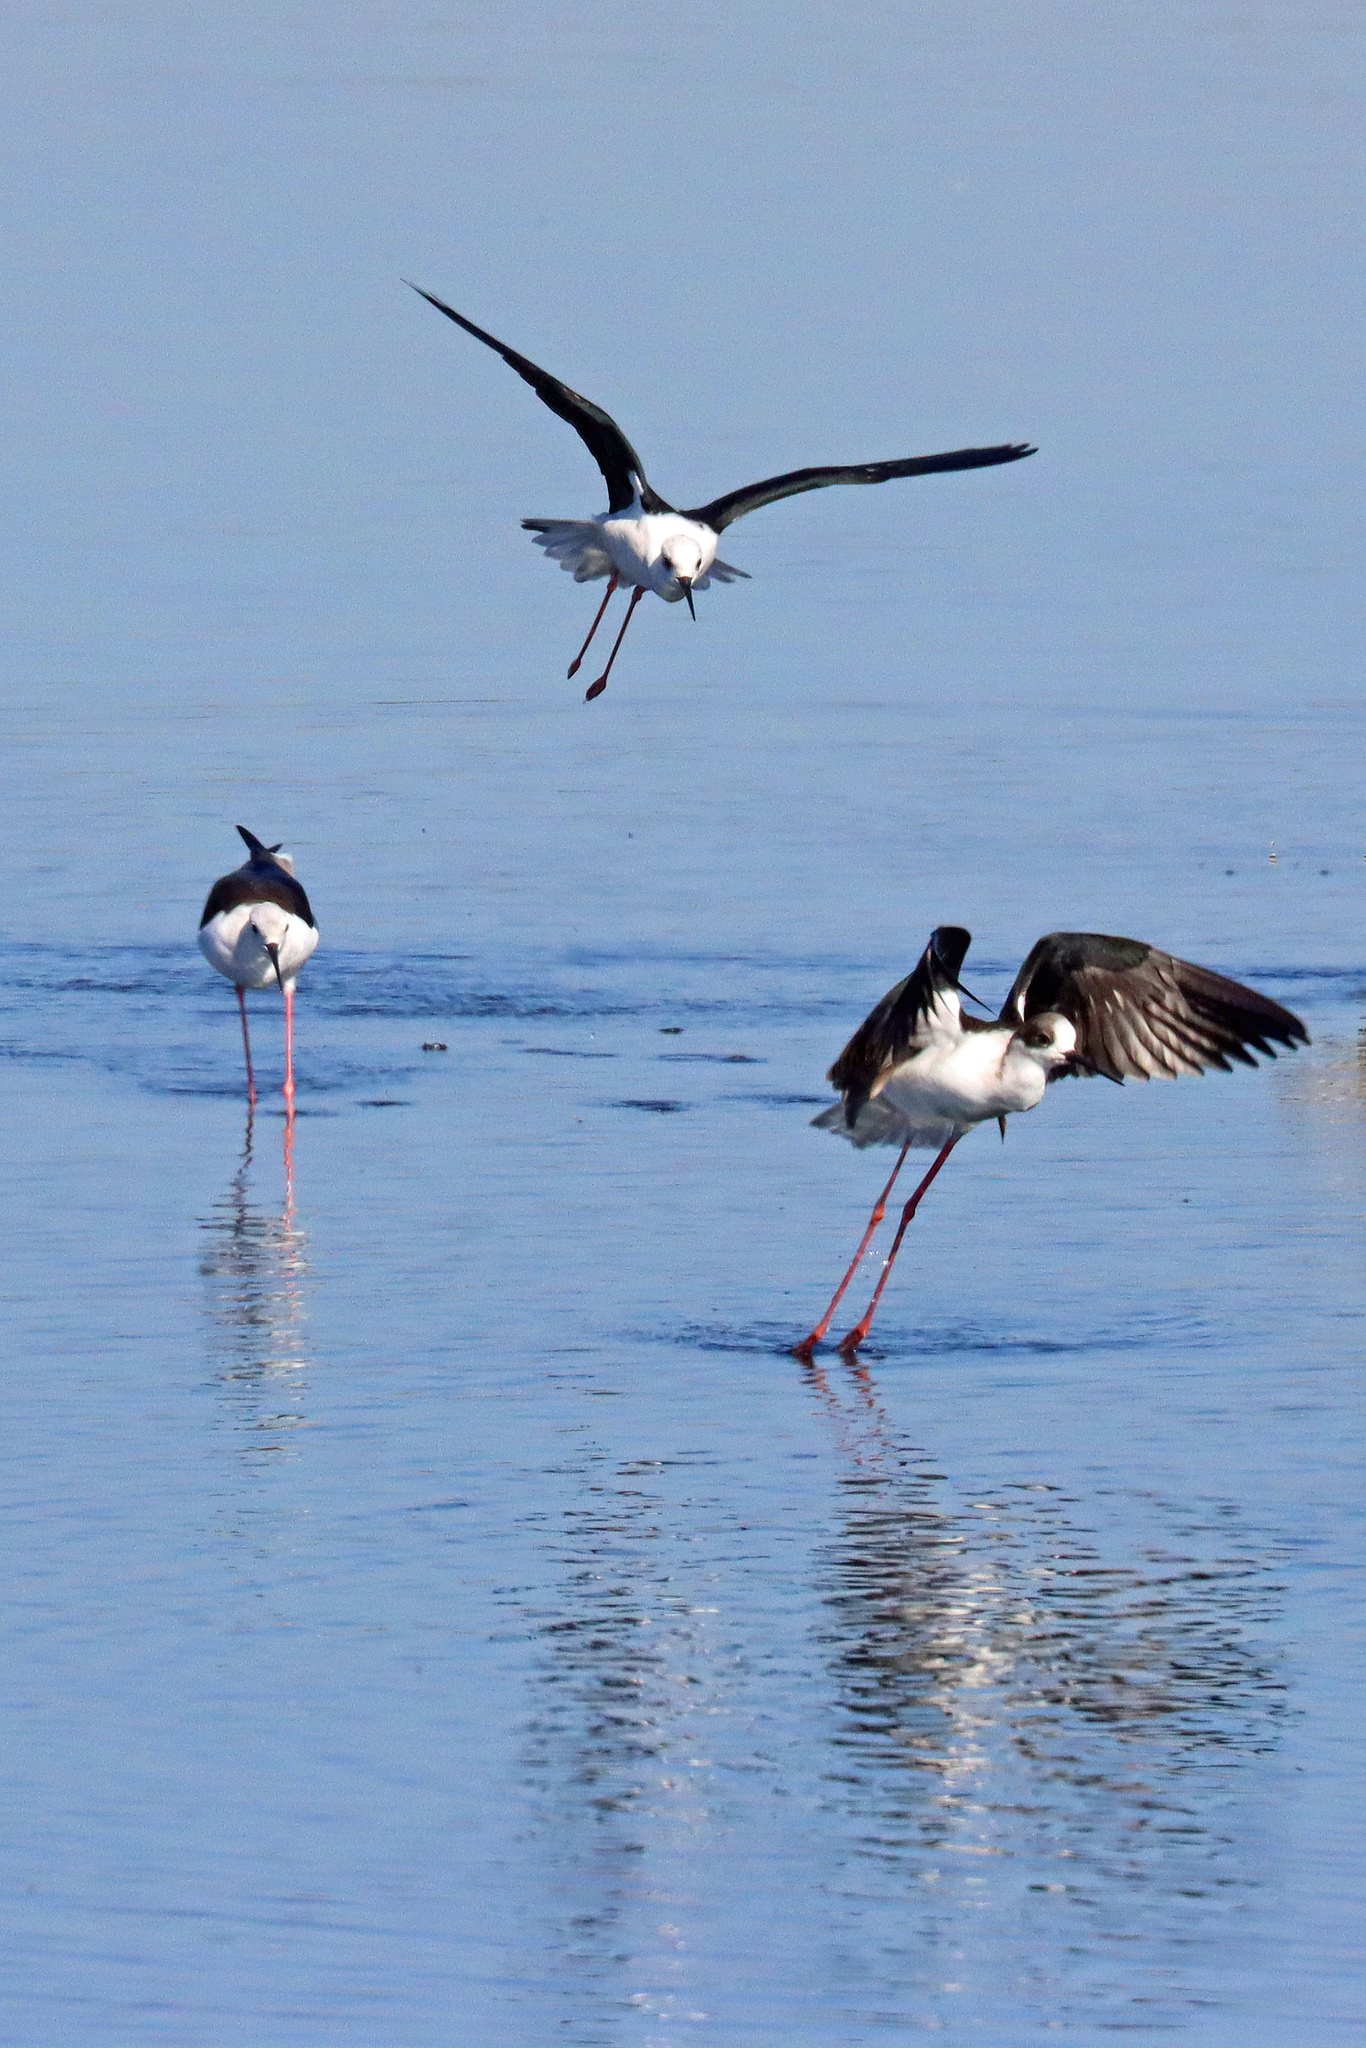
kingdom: Animalia
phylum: Chordata
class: Aves
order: Charadriiformes
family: Recurvirostridae
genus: Himantopus
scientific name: Himantopus himantopus
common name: Black-winged stilt
